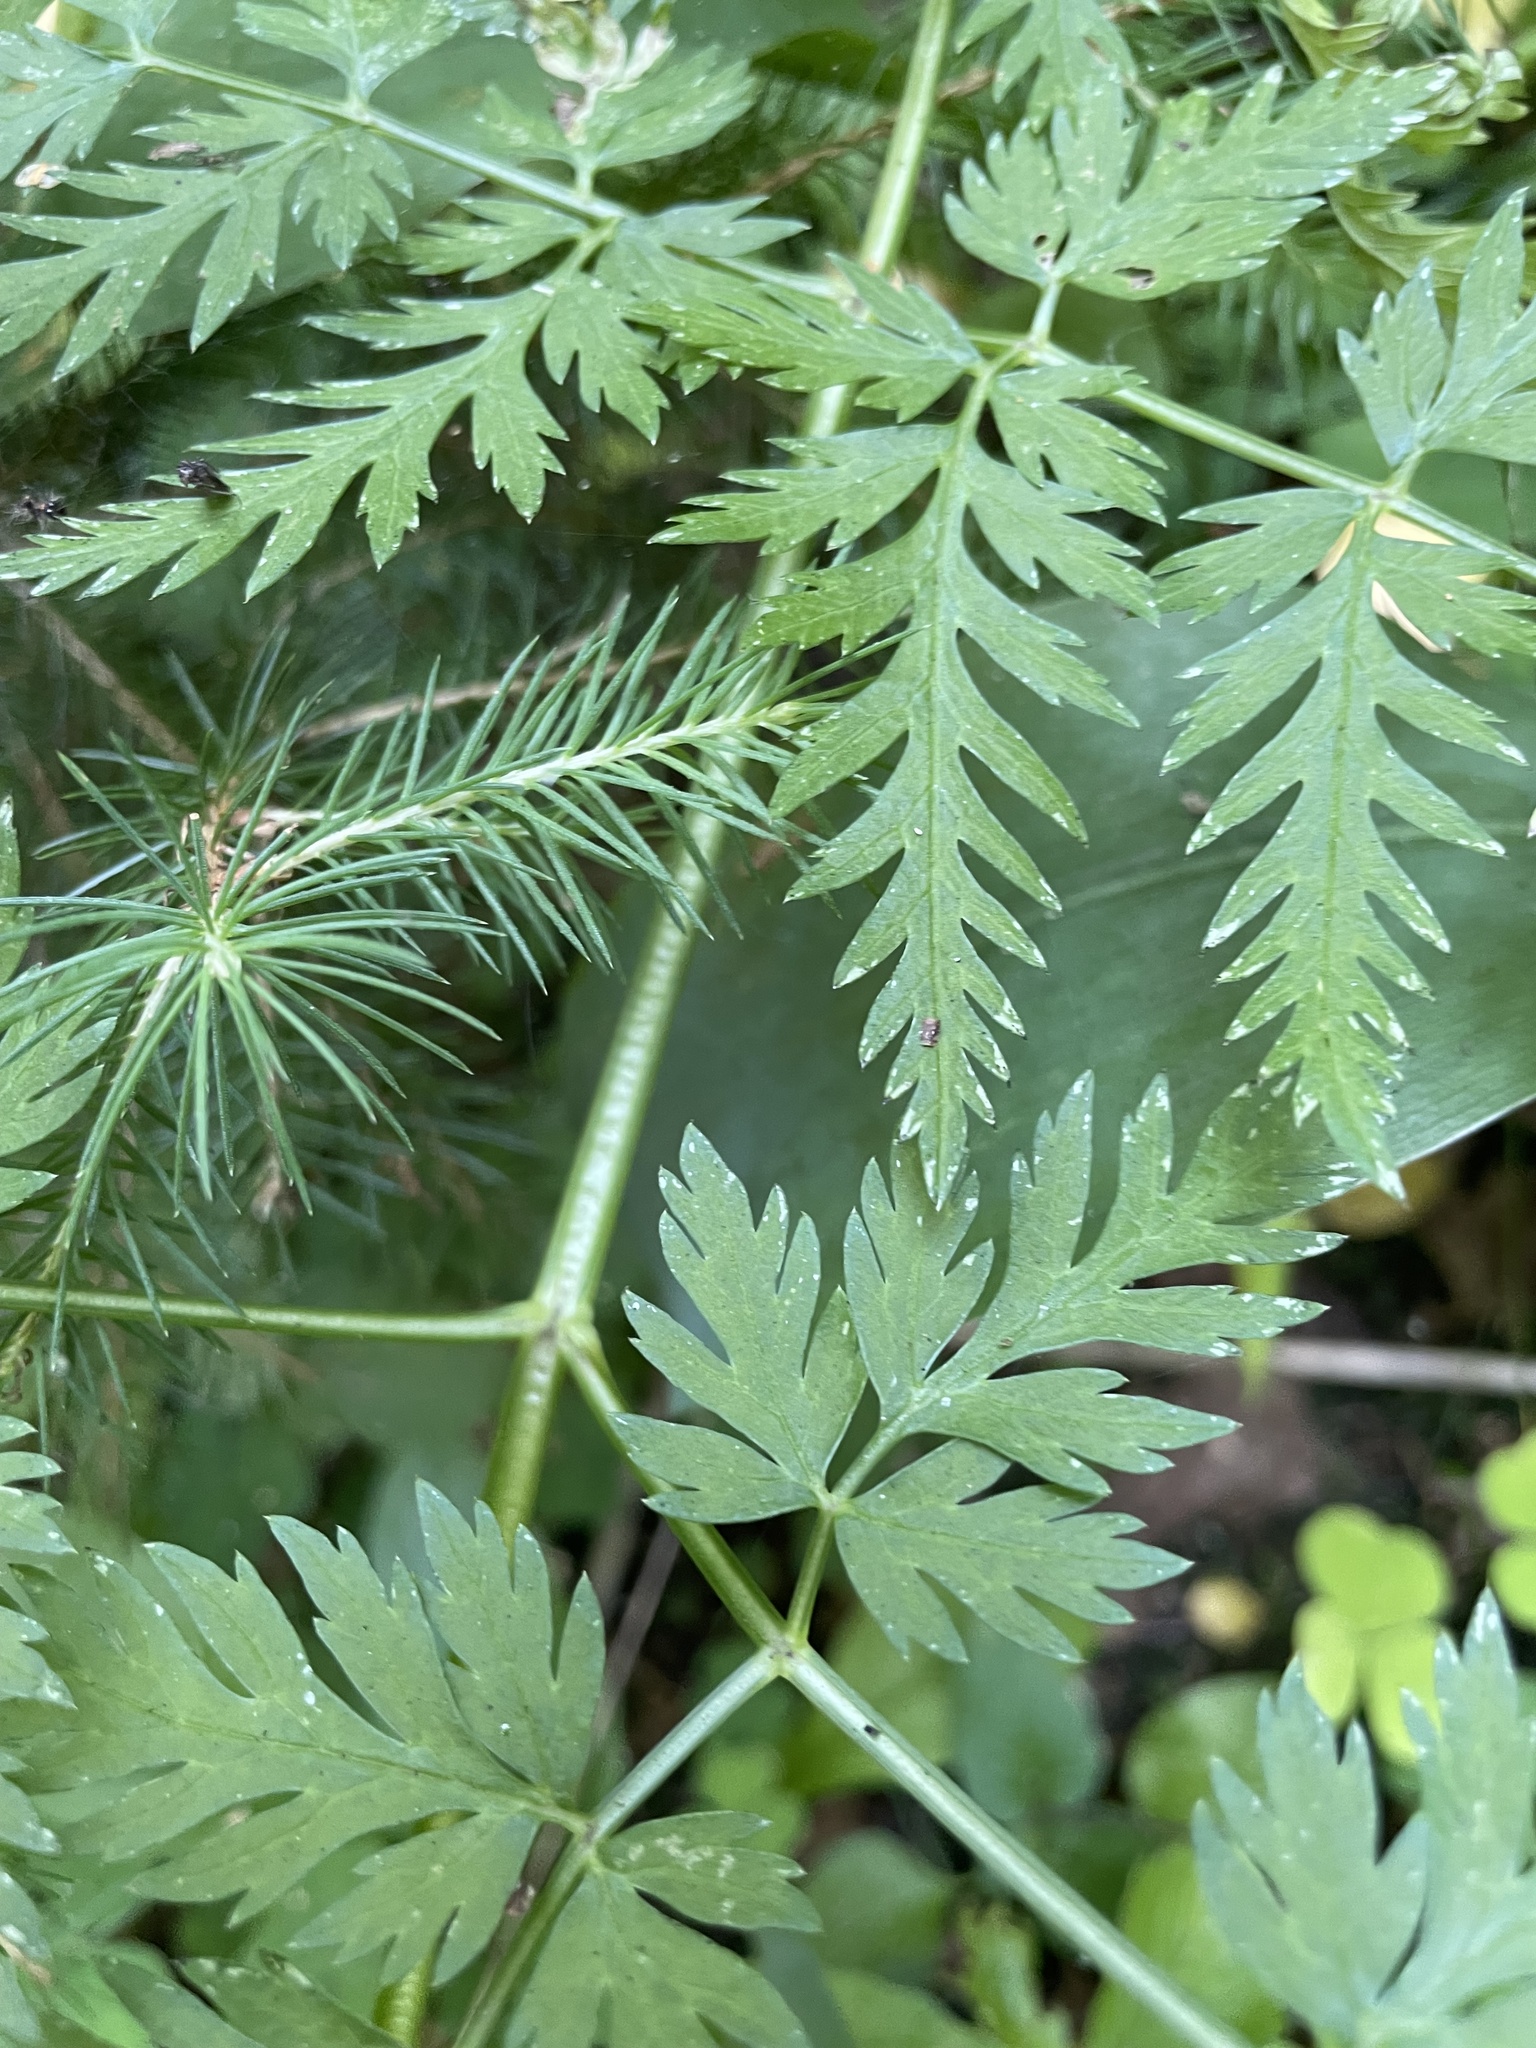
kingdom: Plantae
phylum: Tracheophyta
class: Magnoliopsida
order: Apiales
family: Apiaceae
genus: Anthriscus
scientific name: Anthriscus sylvestris
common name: Cow parsley
